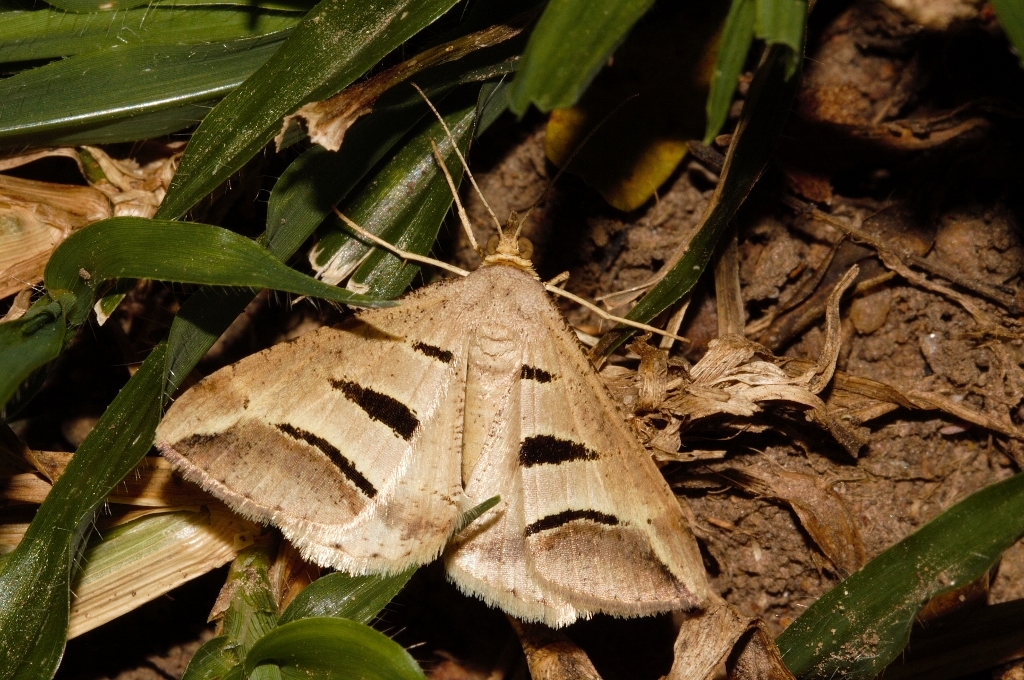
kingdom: Animalia
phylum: Arthropoda
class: Insecta
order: Lepidoptera
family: Geometridae
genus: Chiasmia
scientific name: Chiasmia observata
